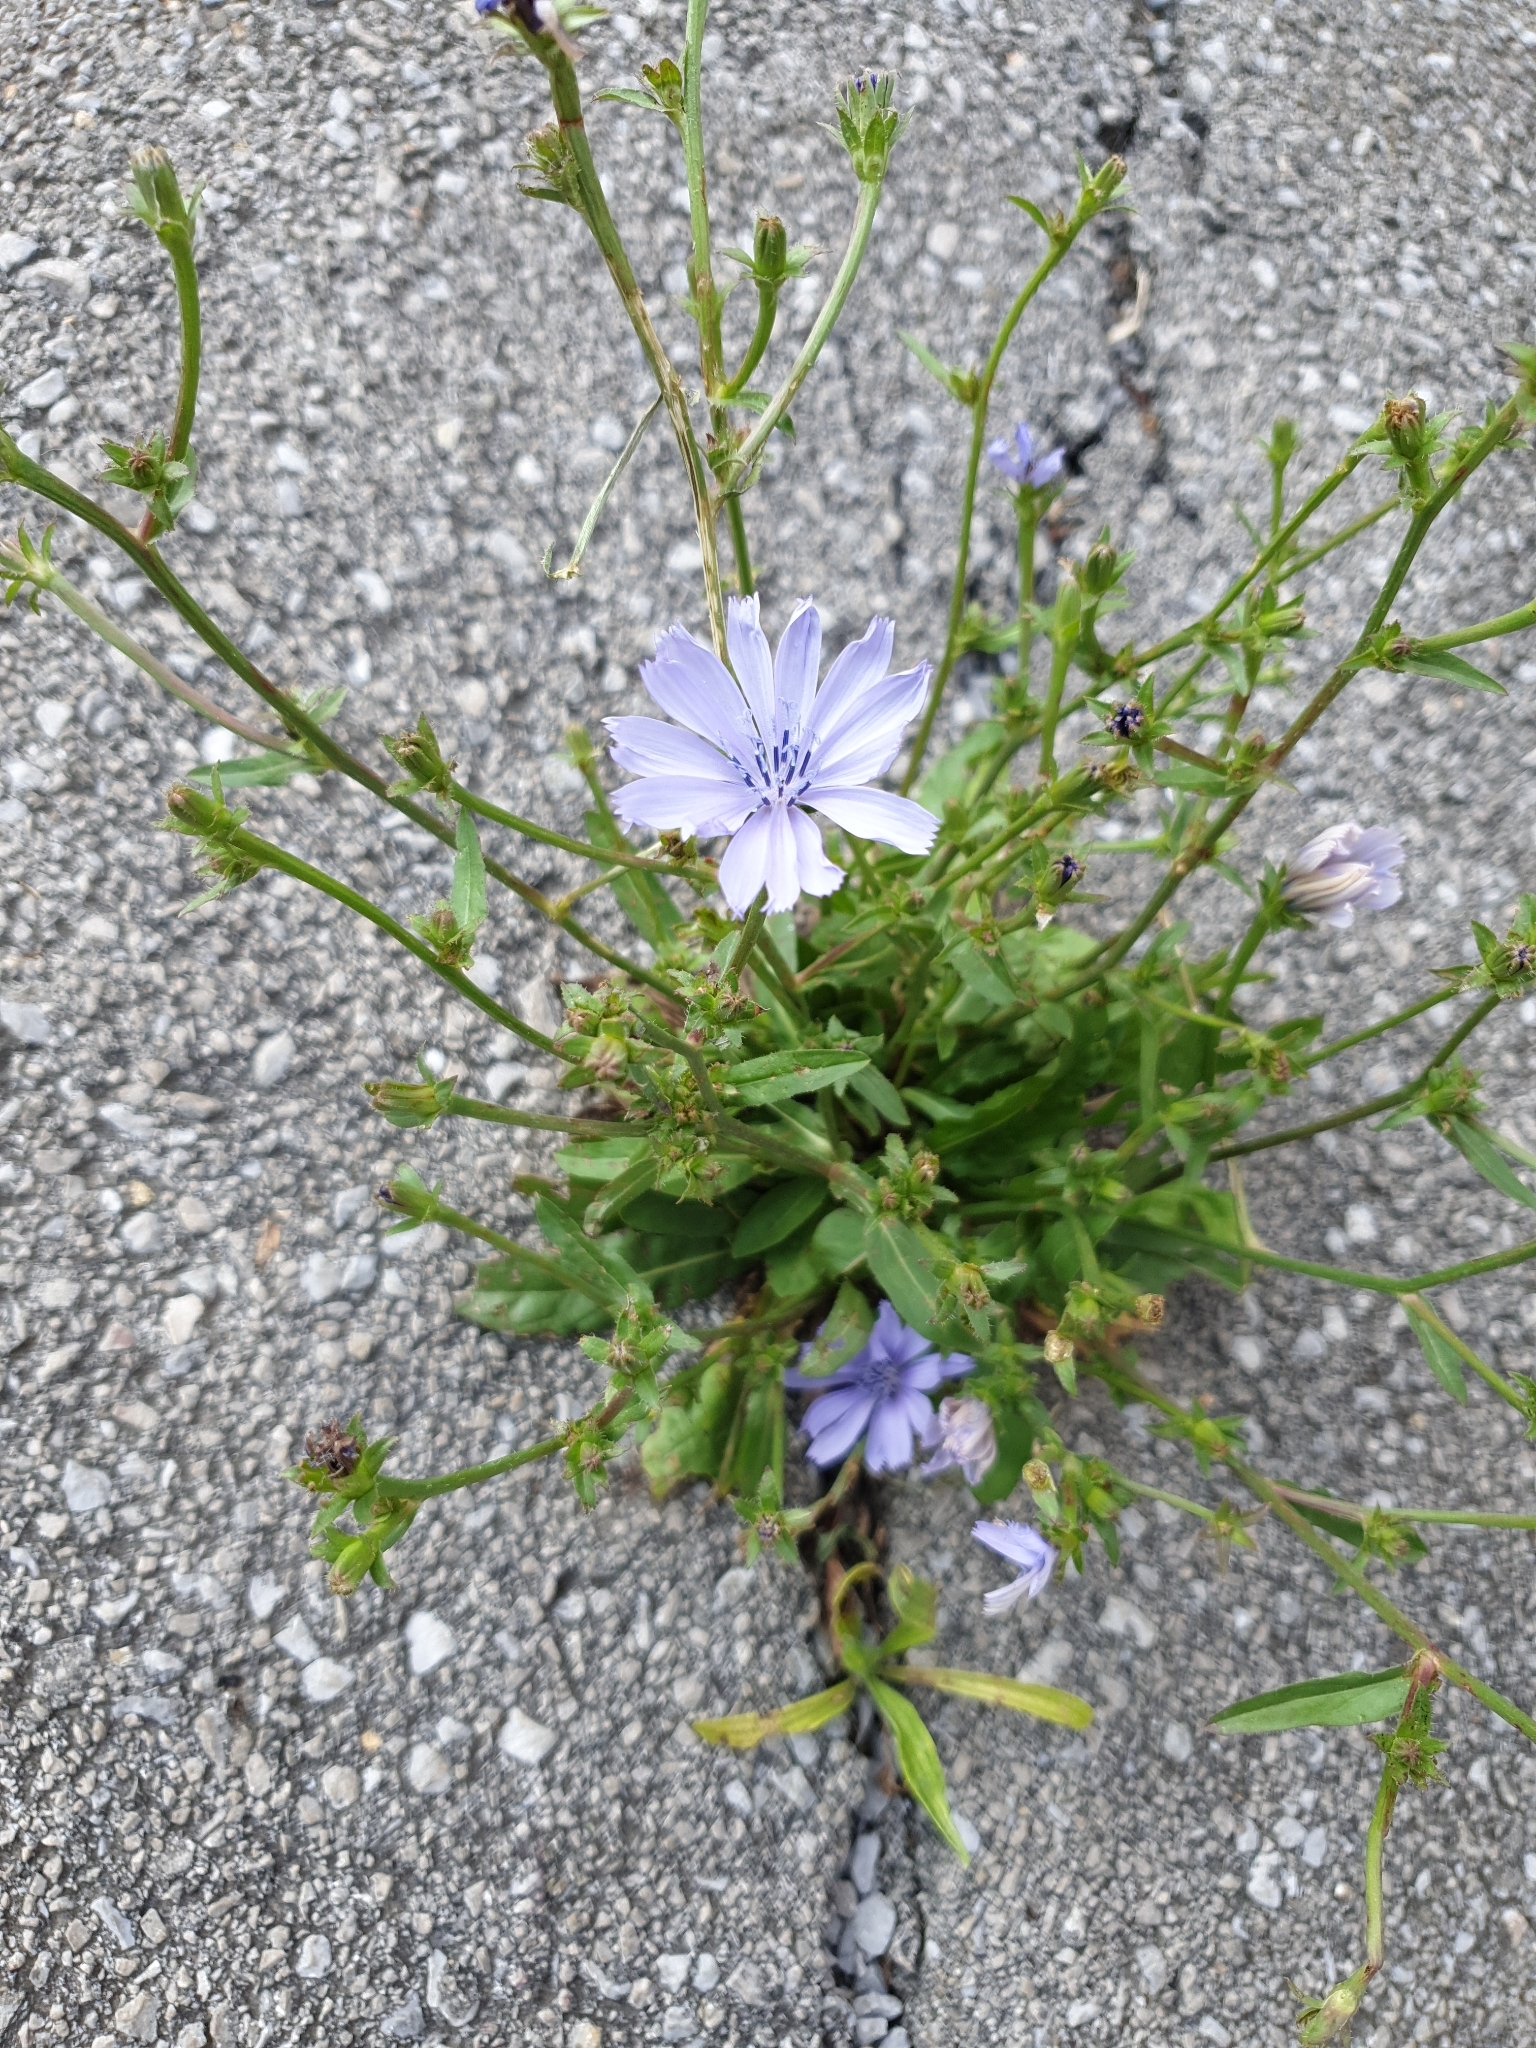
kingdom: Plantae
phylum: Tracheophyta
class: Magnoliopsida
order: Asterales
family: Asteraceae
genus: Cichorium
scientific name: Cichorium intybus
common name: Chicory
